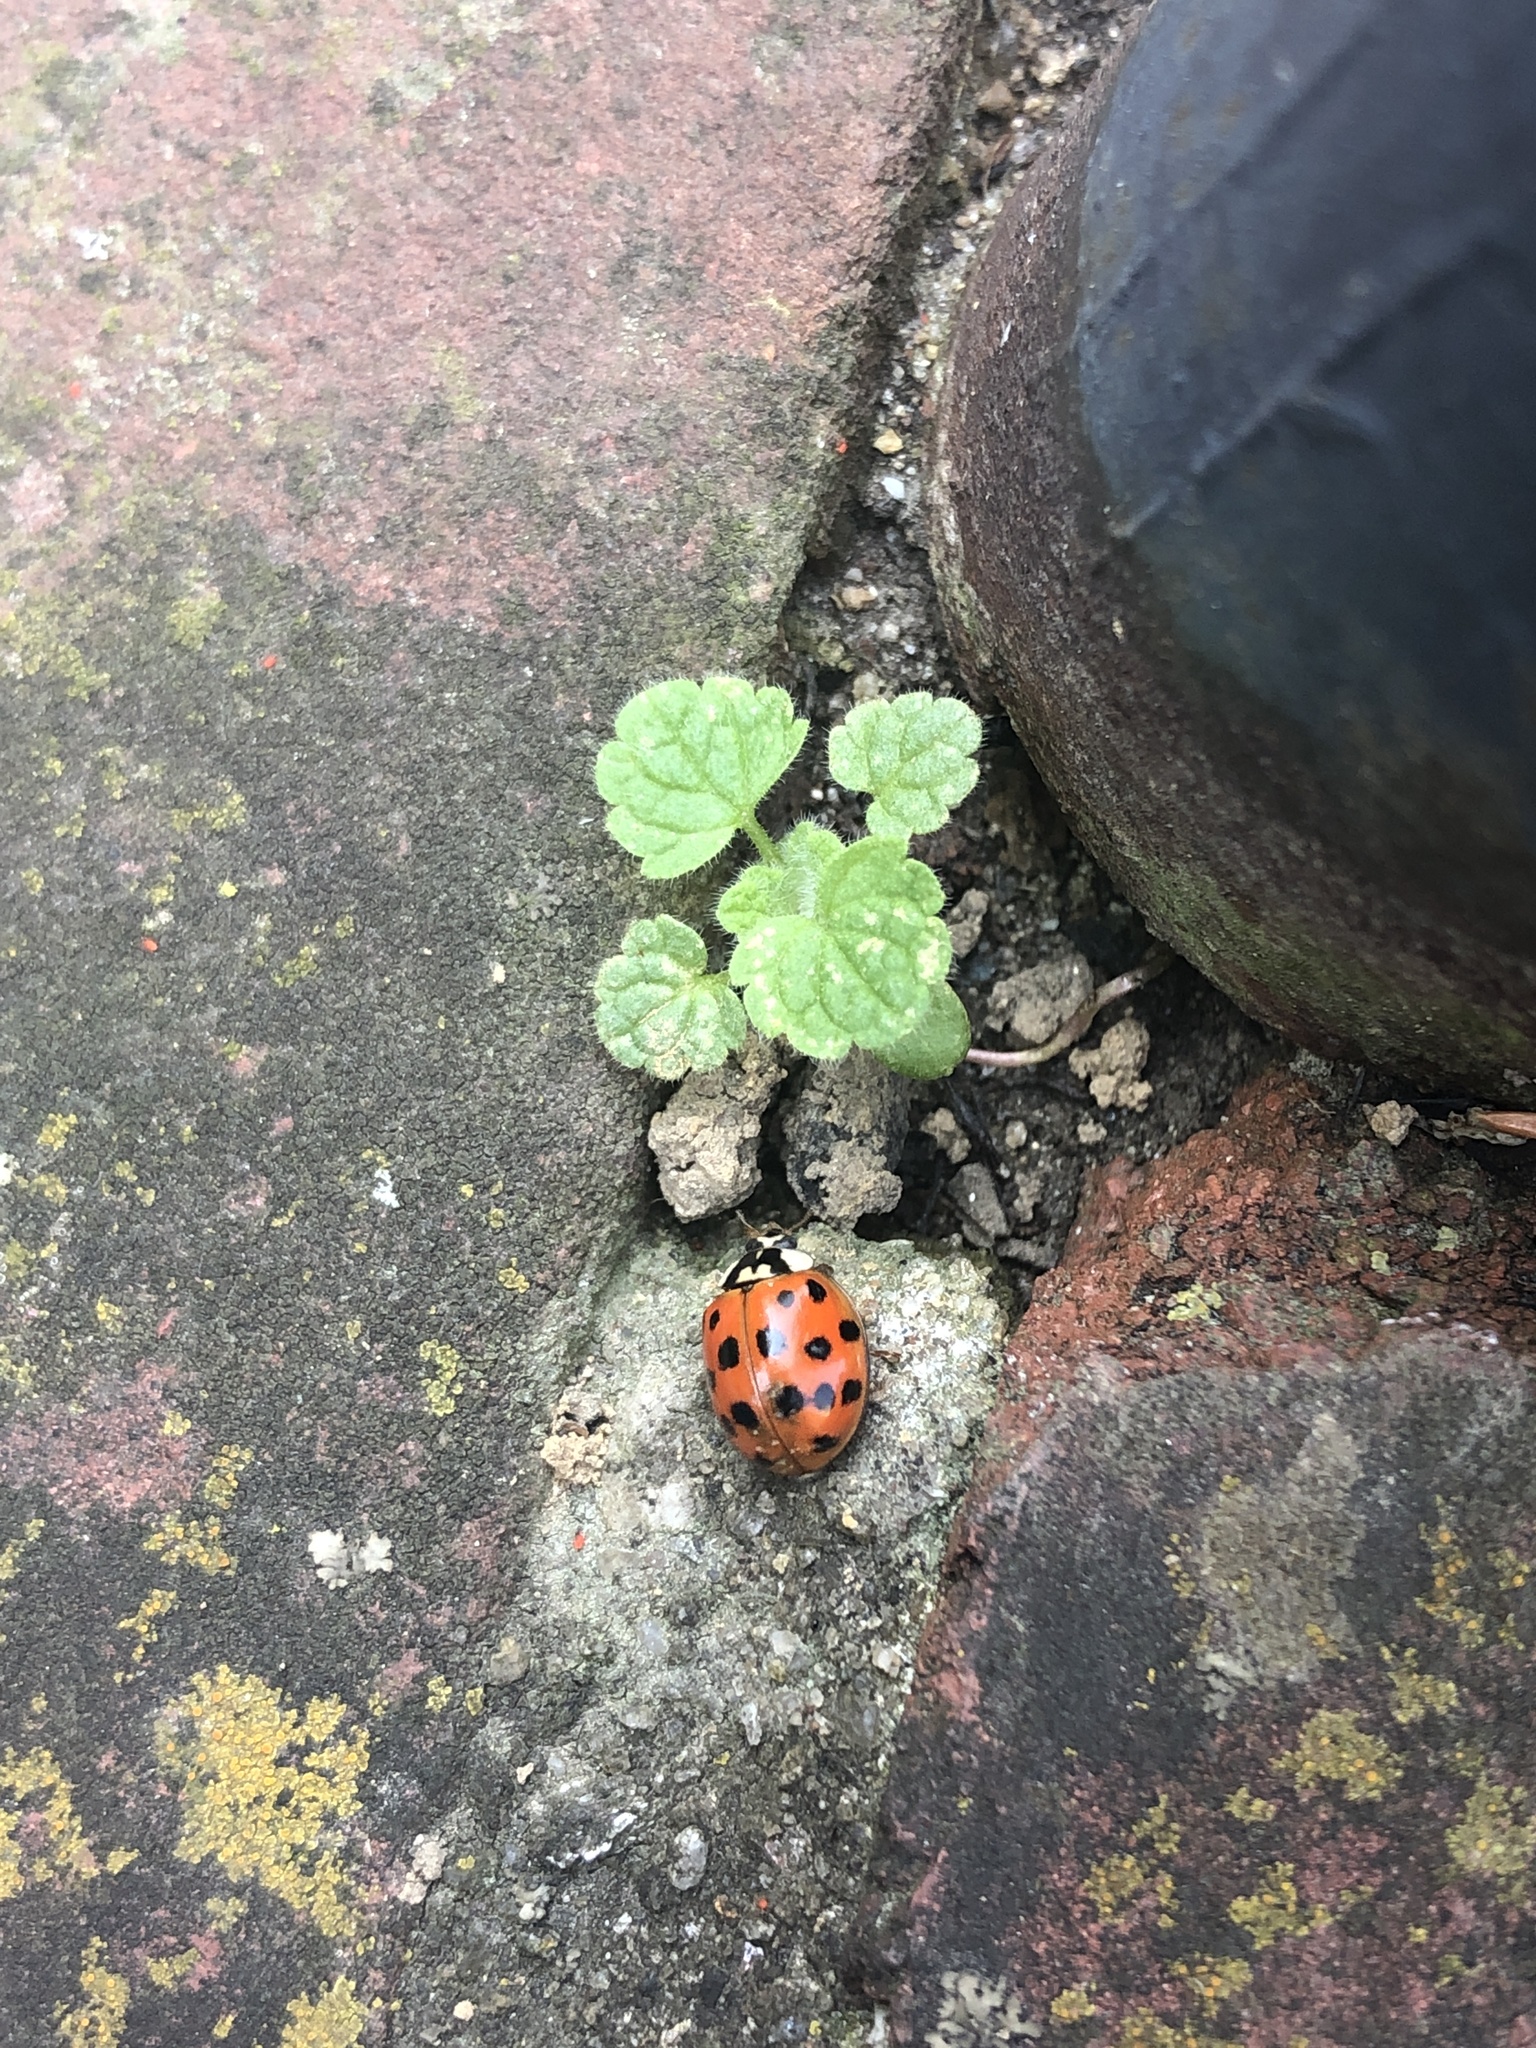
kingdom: Animalia
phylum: Arthropoda
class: Insecta
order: Coleoptera
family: Coccinellidae
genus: Harmonia
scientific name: Harmonia axyridis
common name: Harlequin ladybird
